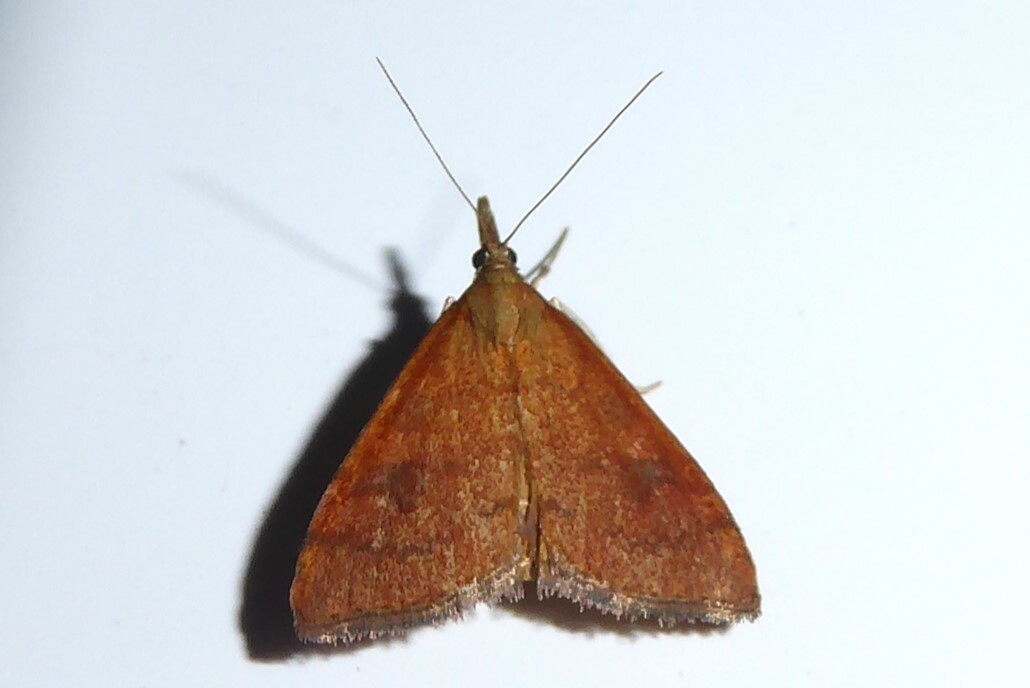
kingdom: Animalia
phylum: Arthropoda
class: Insecta
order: Lepidoptera
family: Crambidae
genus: Udea
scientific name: Udea Mnesictena flavidalis
